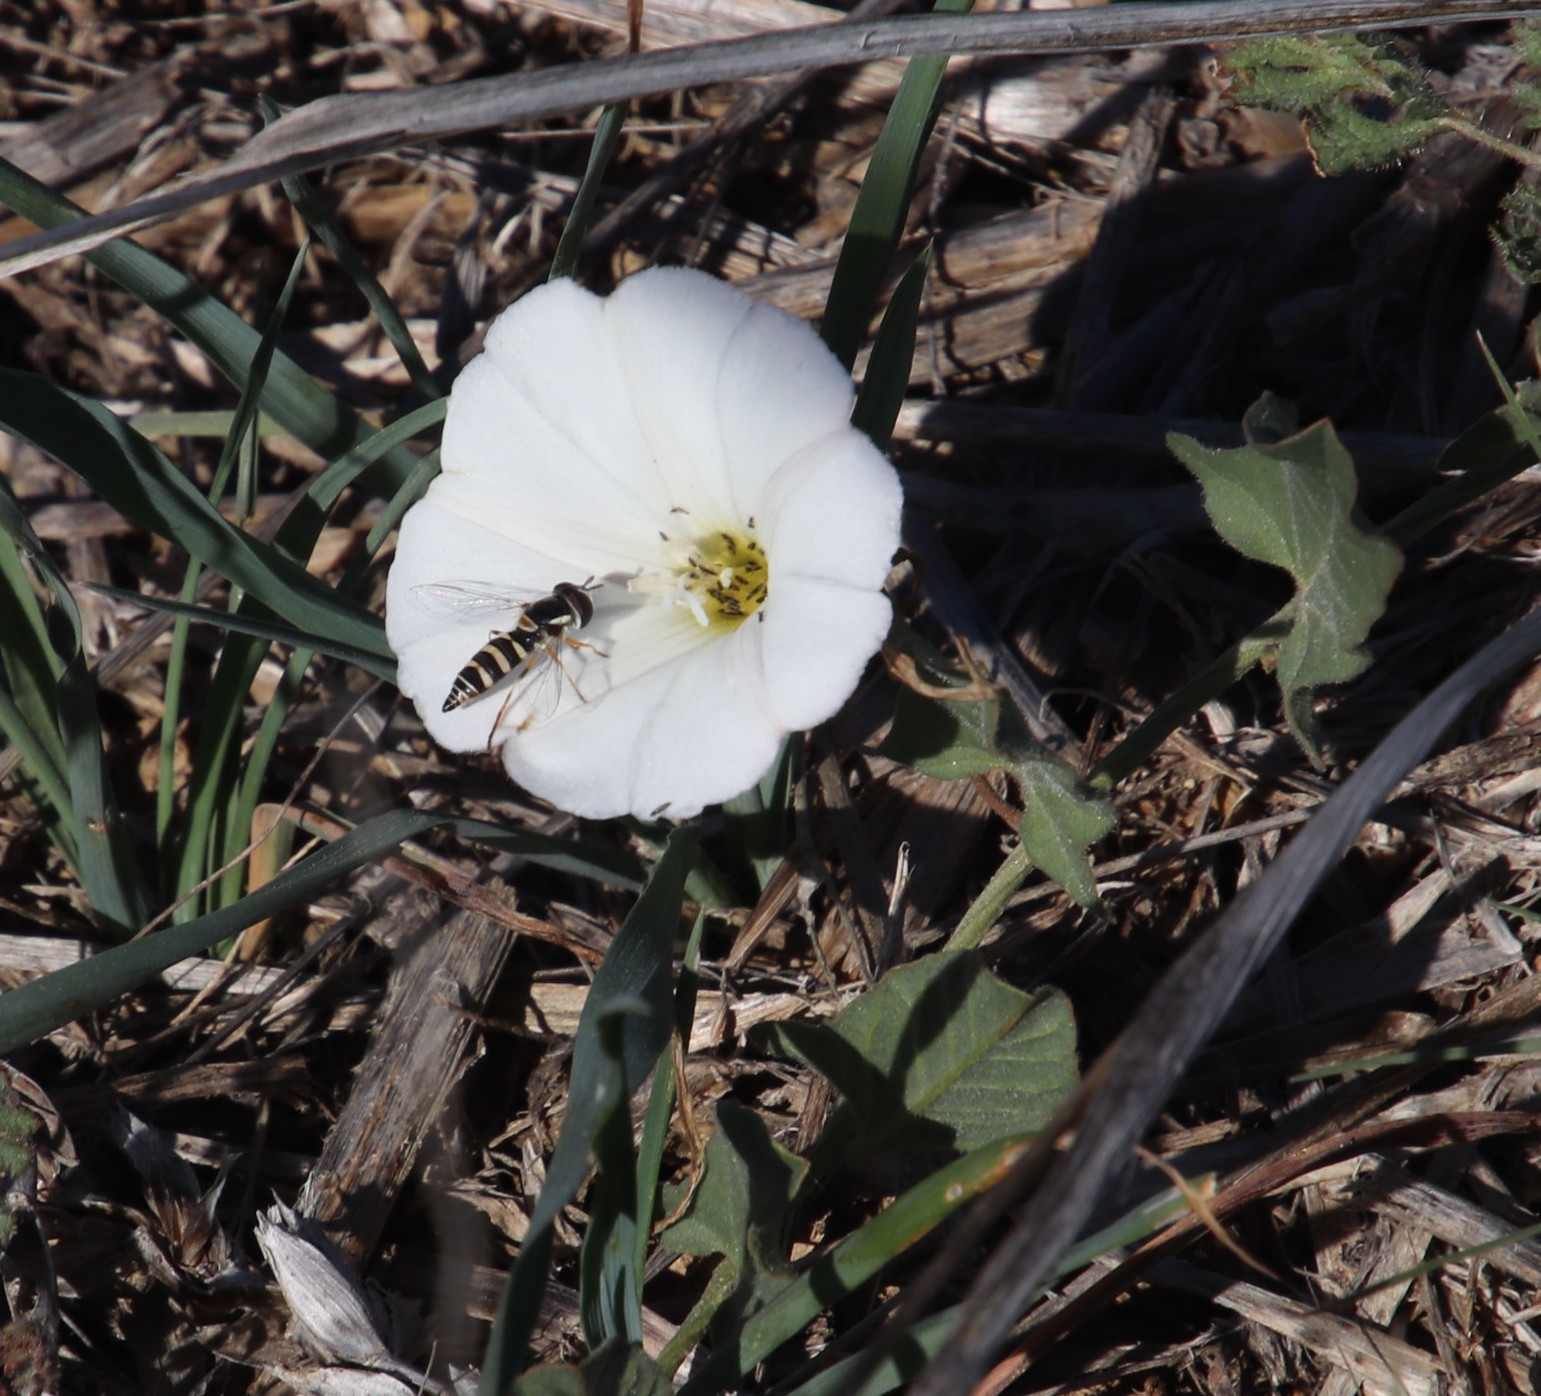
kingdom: Plantae
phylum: Tracheophyta
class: Magnoliopsida
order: Solanales
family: Convolvulaceae
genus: Convolvulus
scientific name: Convolvulus arvensis
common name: Field bindweed
